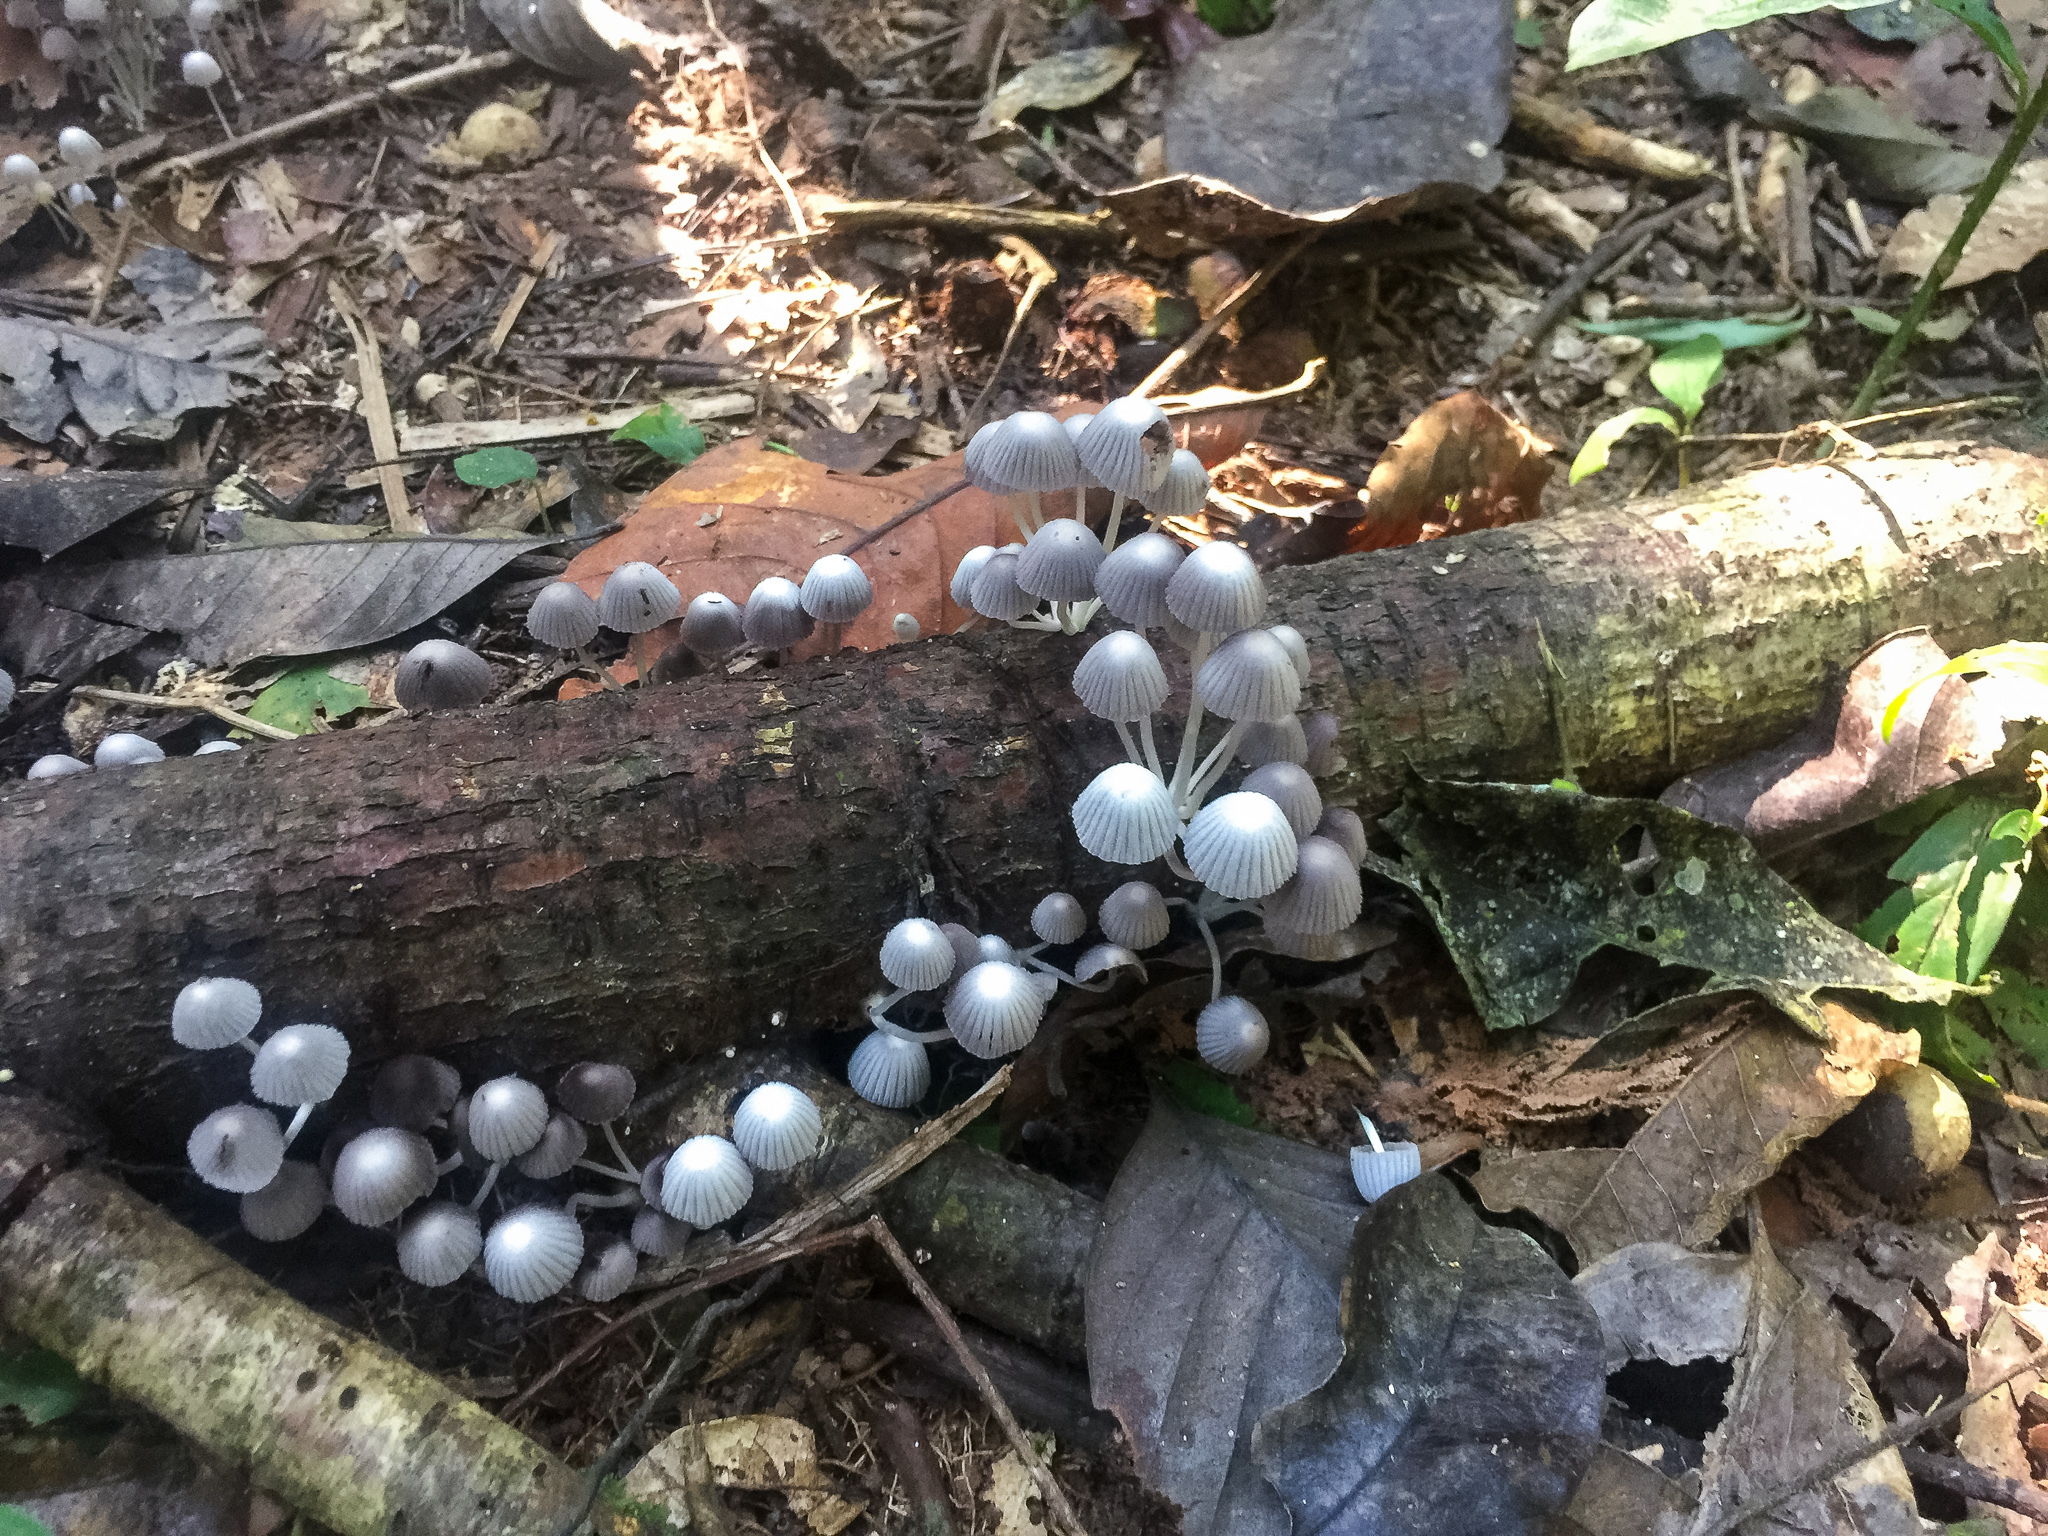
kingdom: Fungi
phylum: Basidiomycota
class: Agaricomycetes
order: Agaricales
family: Psathyrellaceae
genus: Coprinellus
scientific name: Coprinellus disseminatus
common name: Fairies' bonnets
